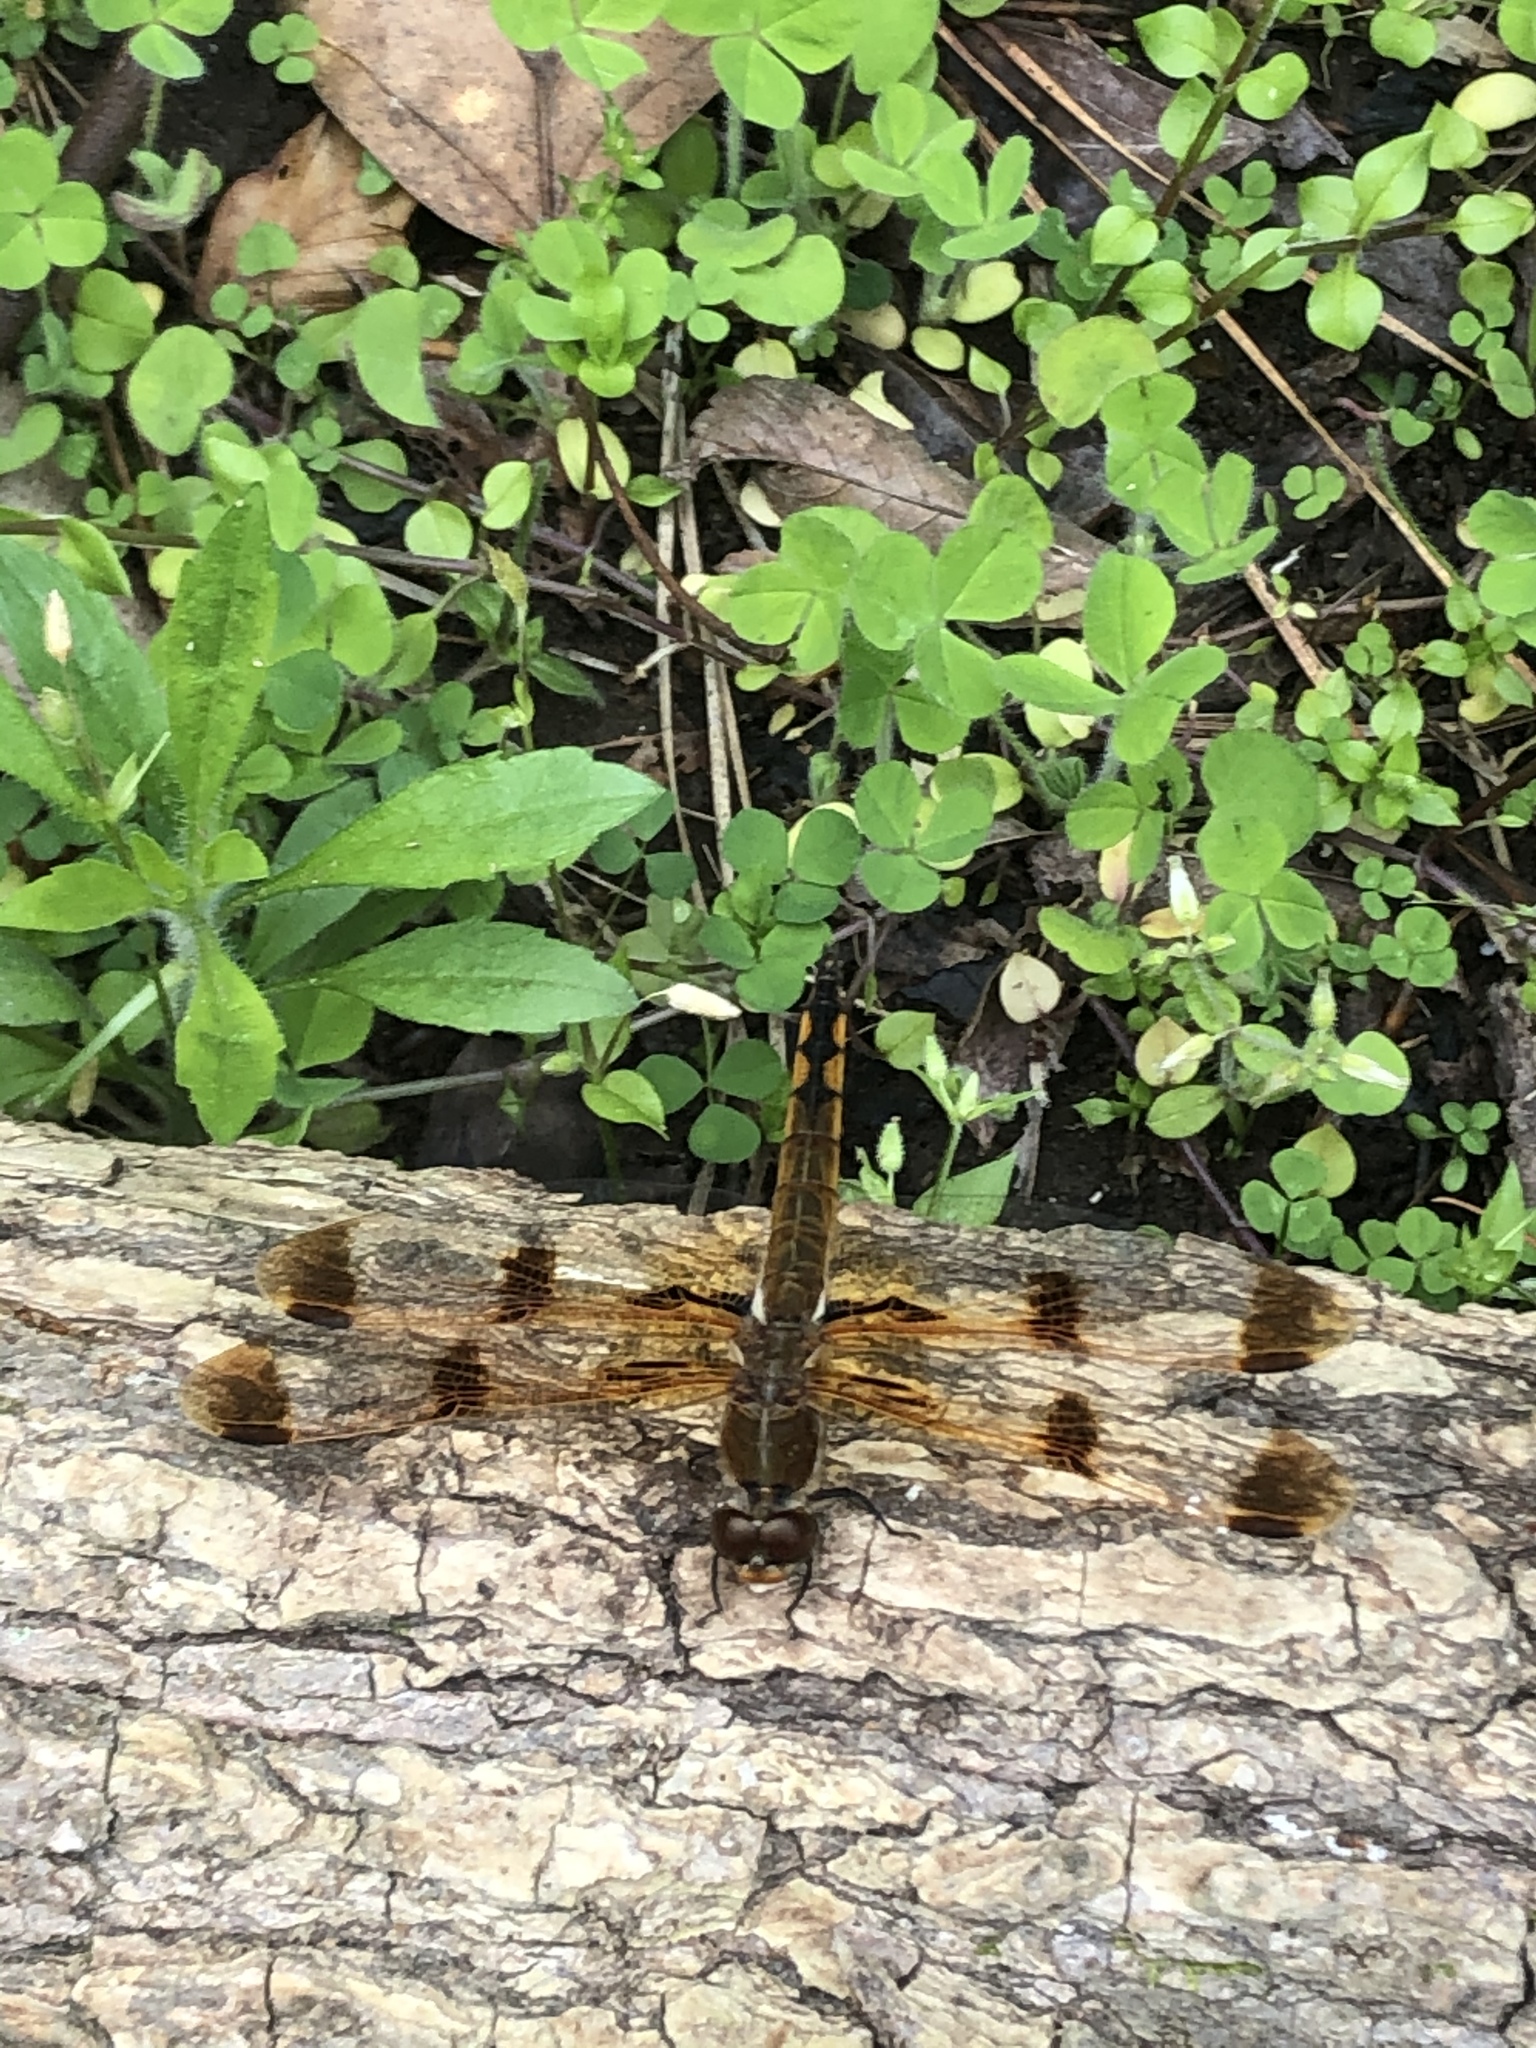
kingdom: Animalia
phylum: Arthropoda
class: Insecta
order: Odonata
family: Libellulidae
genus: Libellula
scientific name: Libellula semifasciata
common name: Painted skimmer
